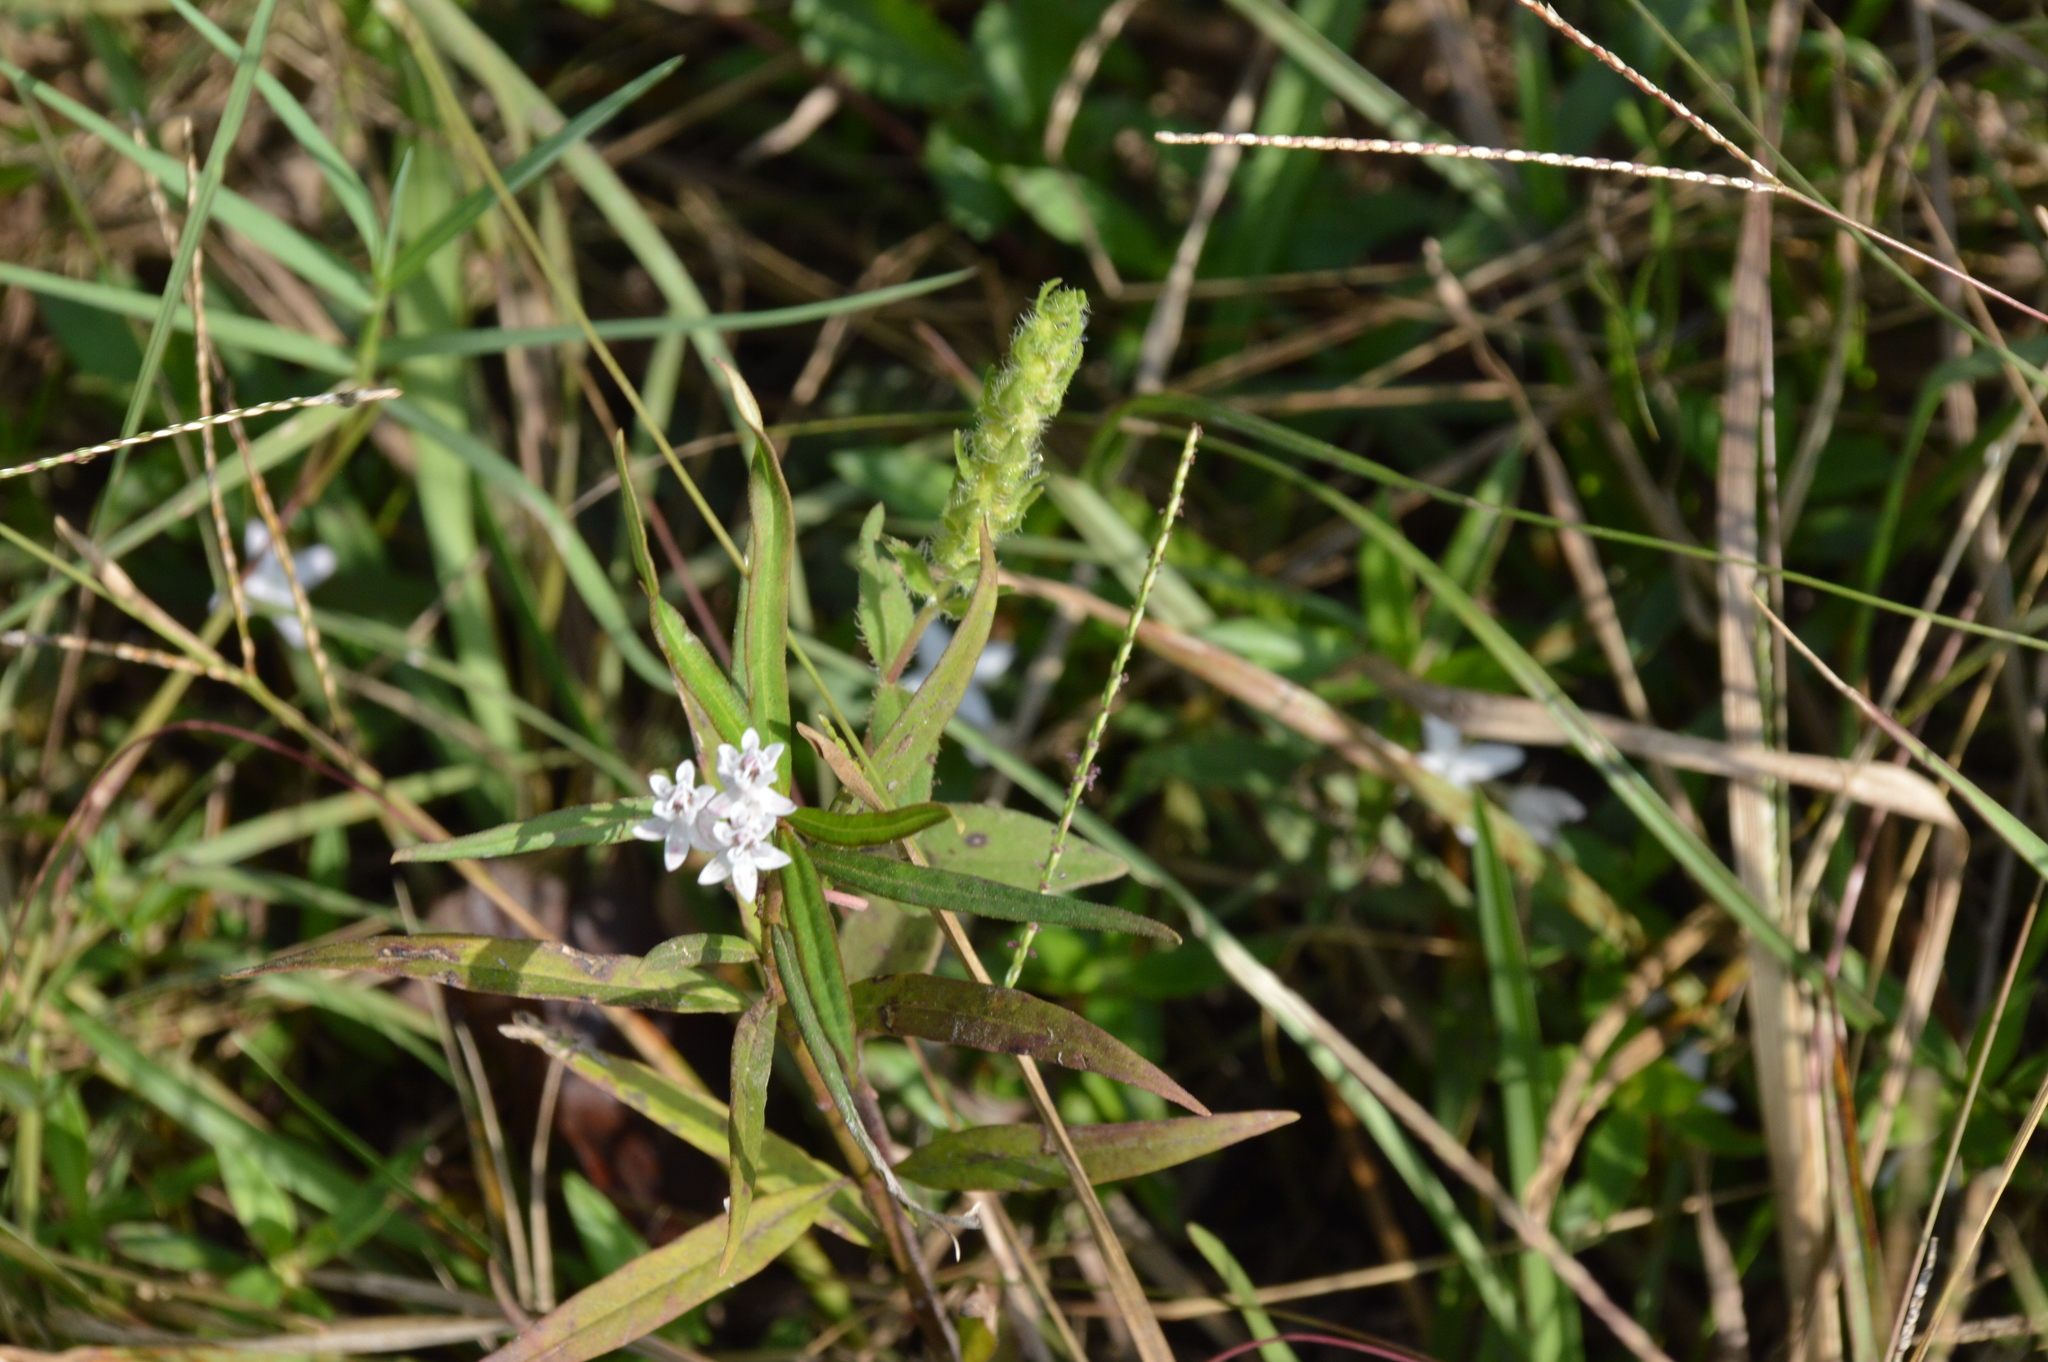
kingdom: Plantae
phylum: Tracheophyta
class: Magnoliopsida
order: Gentianales
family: Apocynaceae
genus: Asclepias
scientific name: Asclepias perennis
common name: Smooth-seed milkweed
